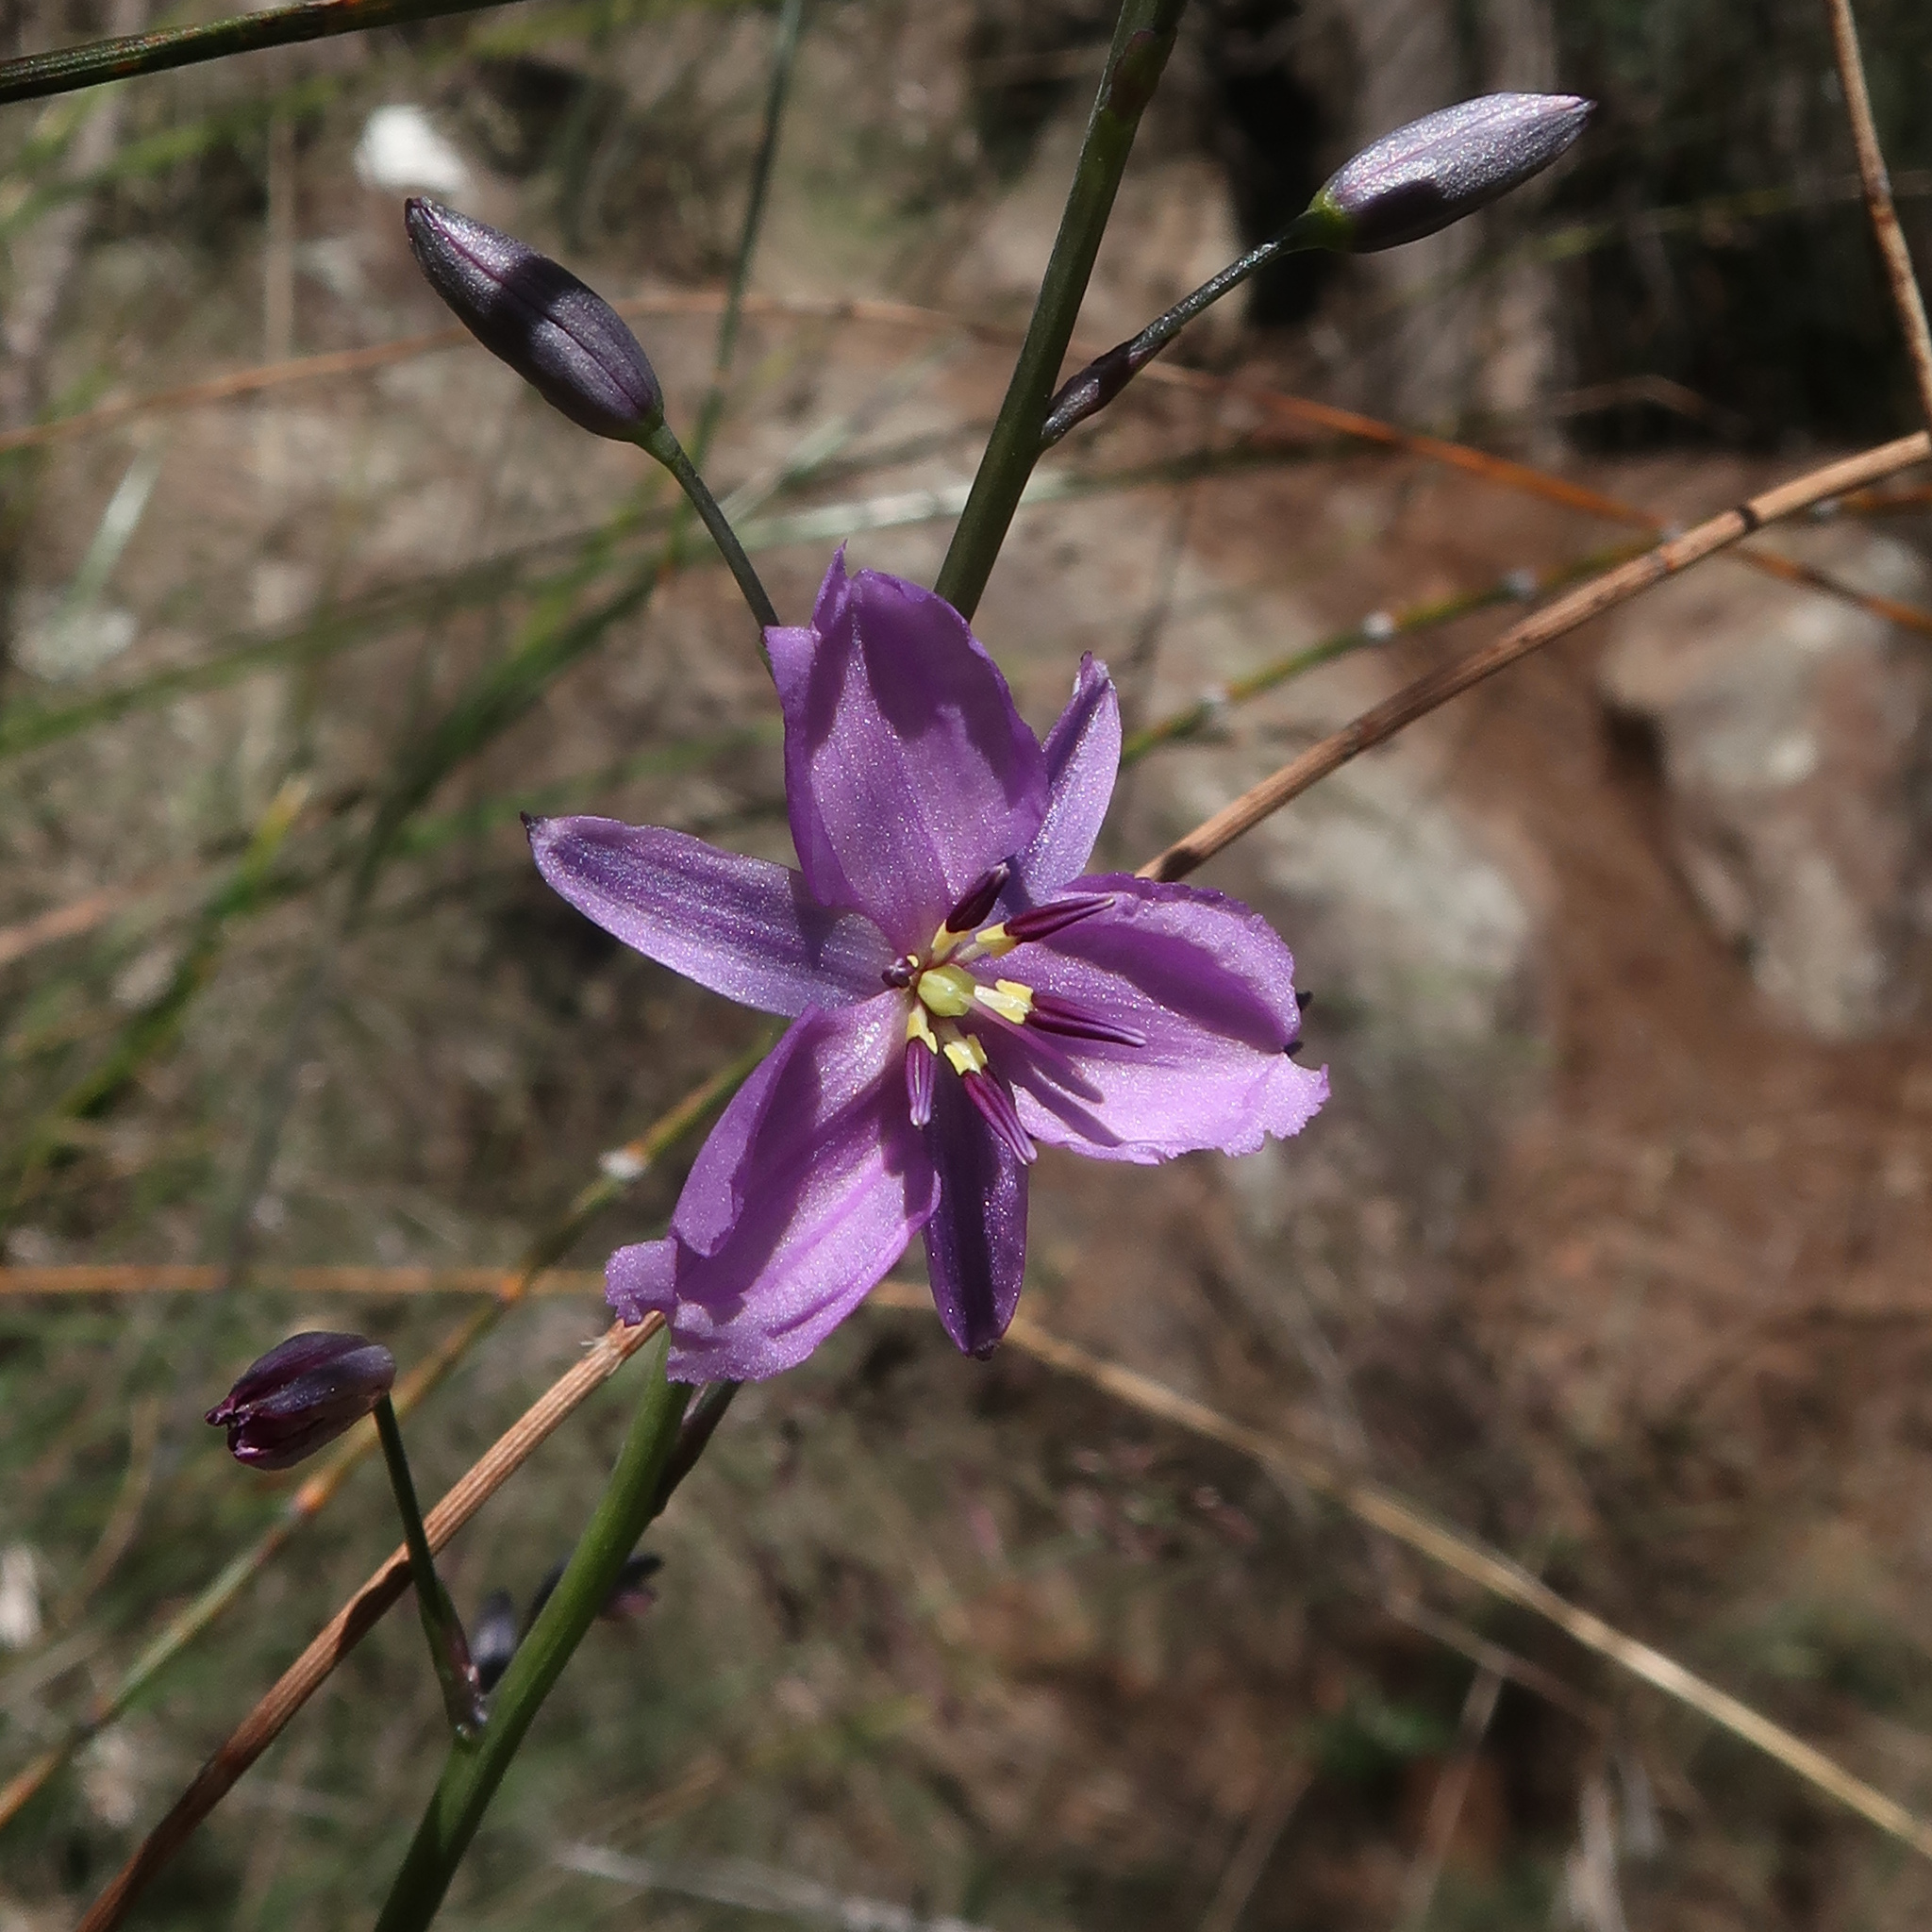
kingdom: Plantae
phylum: Tracheophyta
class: Liliopsida
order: Asparagales
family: Asparagaceae
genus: Arthropodium
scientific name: Arthropodium strictum
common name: Chocolate-lily
